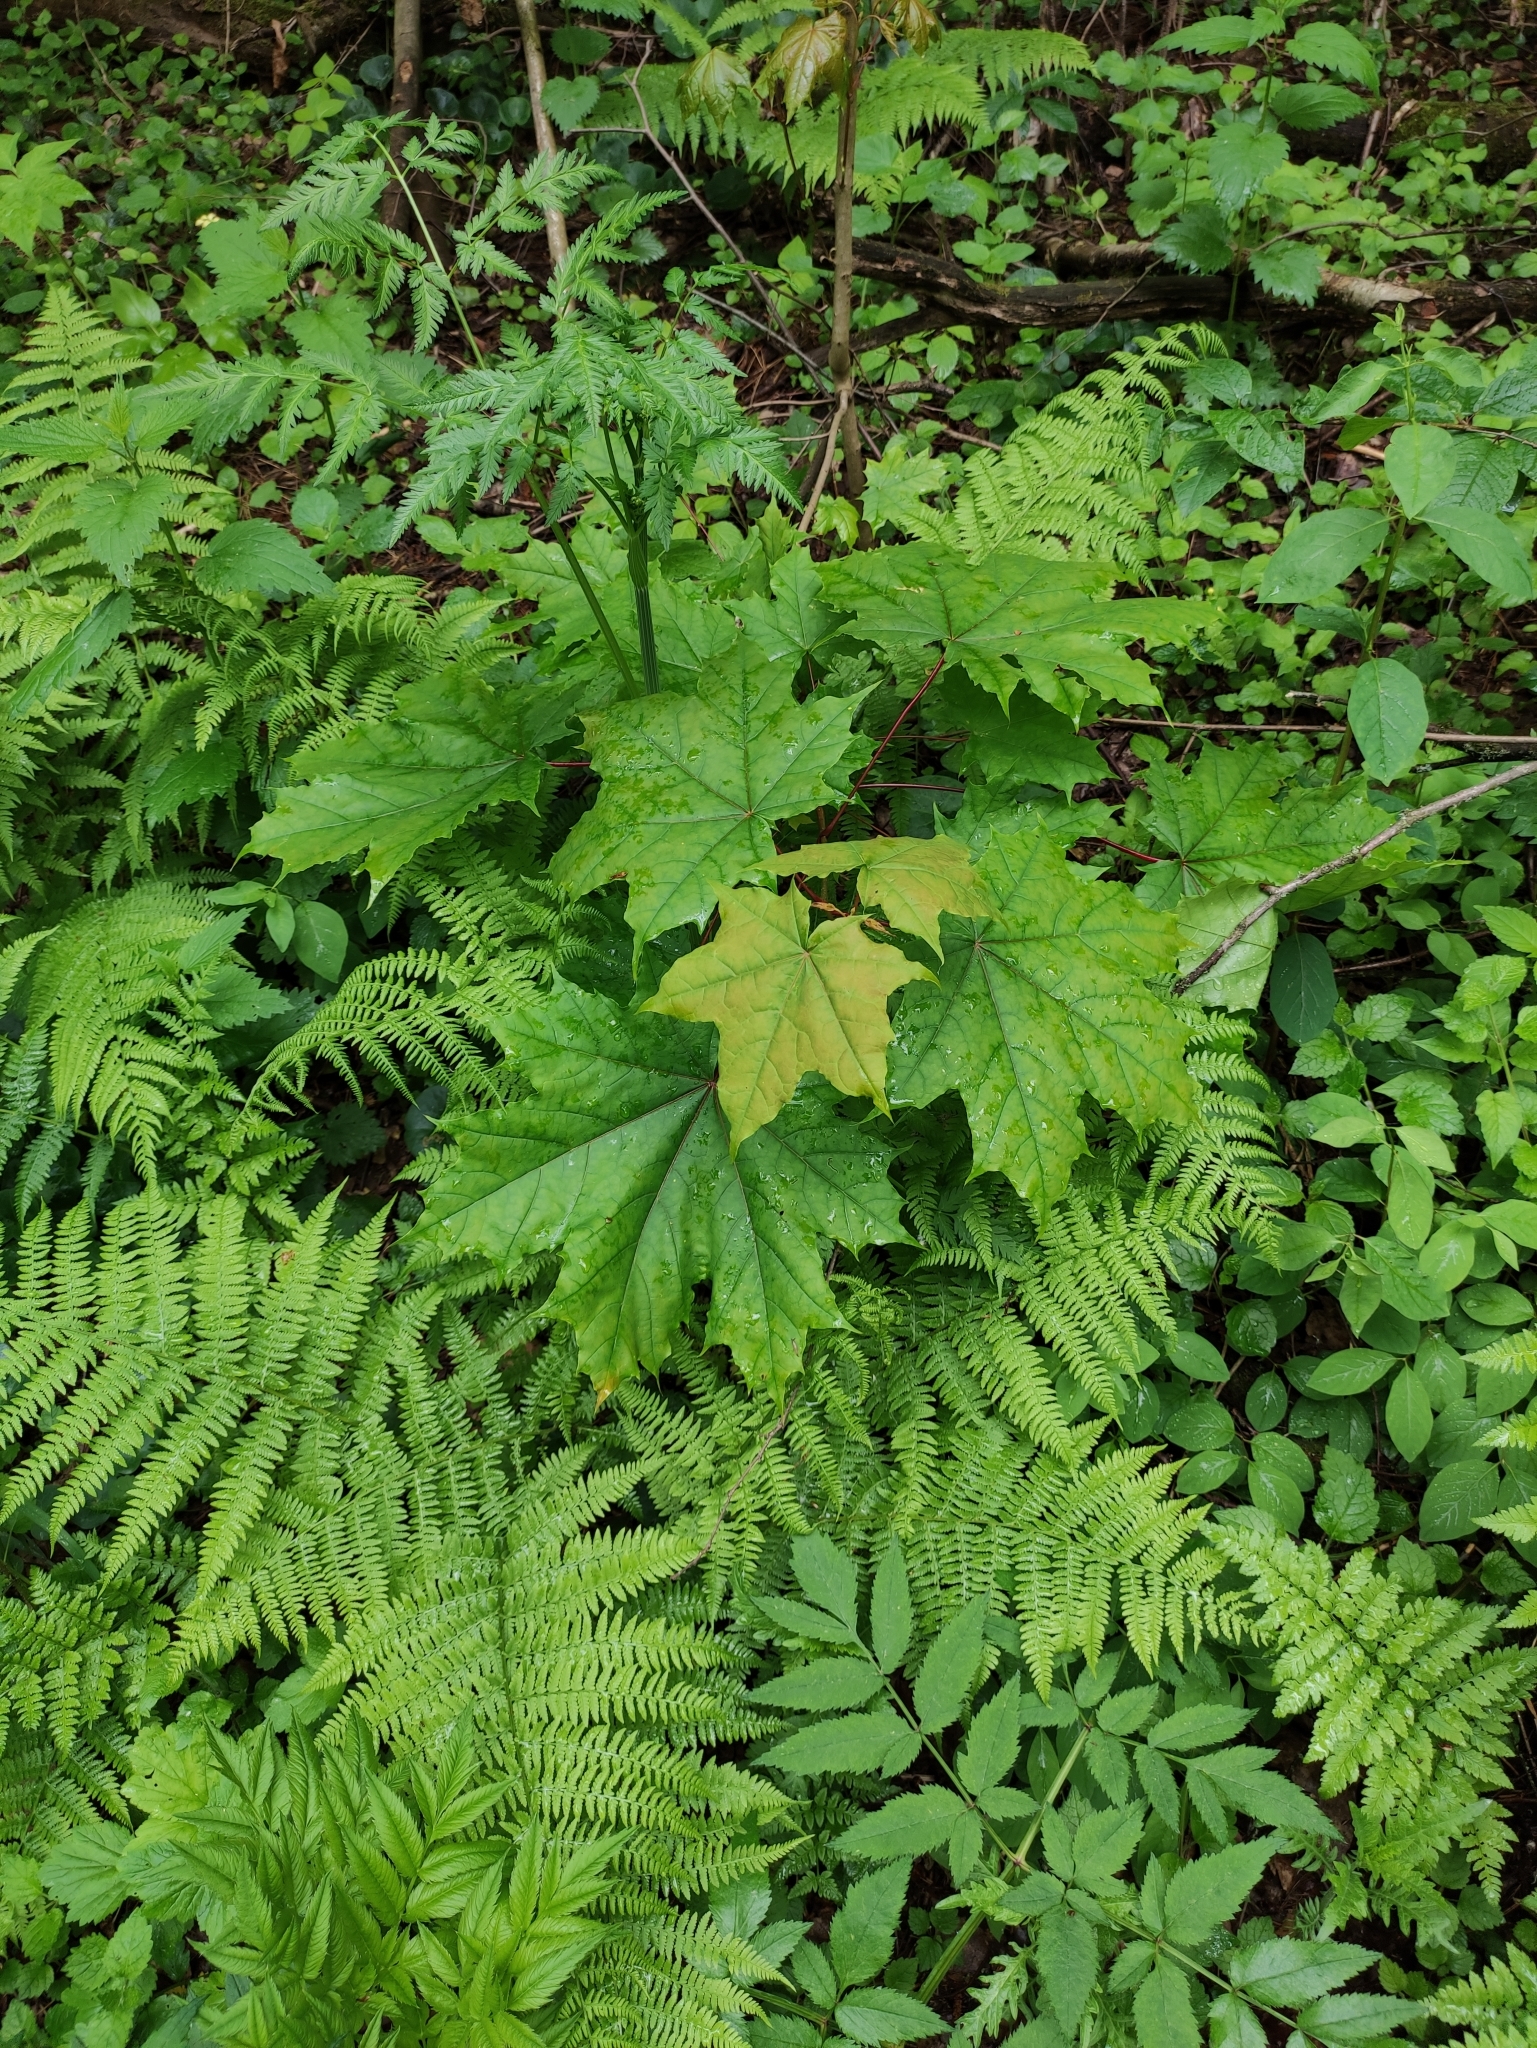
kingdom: Plantae
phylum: Tracheophyta
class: Magnoliopsida
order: Sapindales
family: Sapindaceae
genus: Acer
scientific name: Acer platanoides
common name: Norway maple
